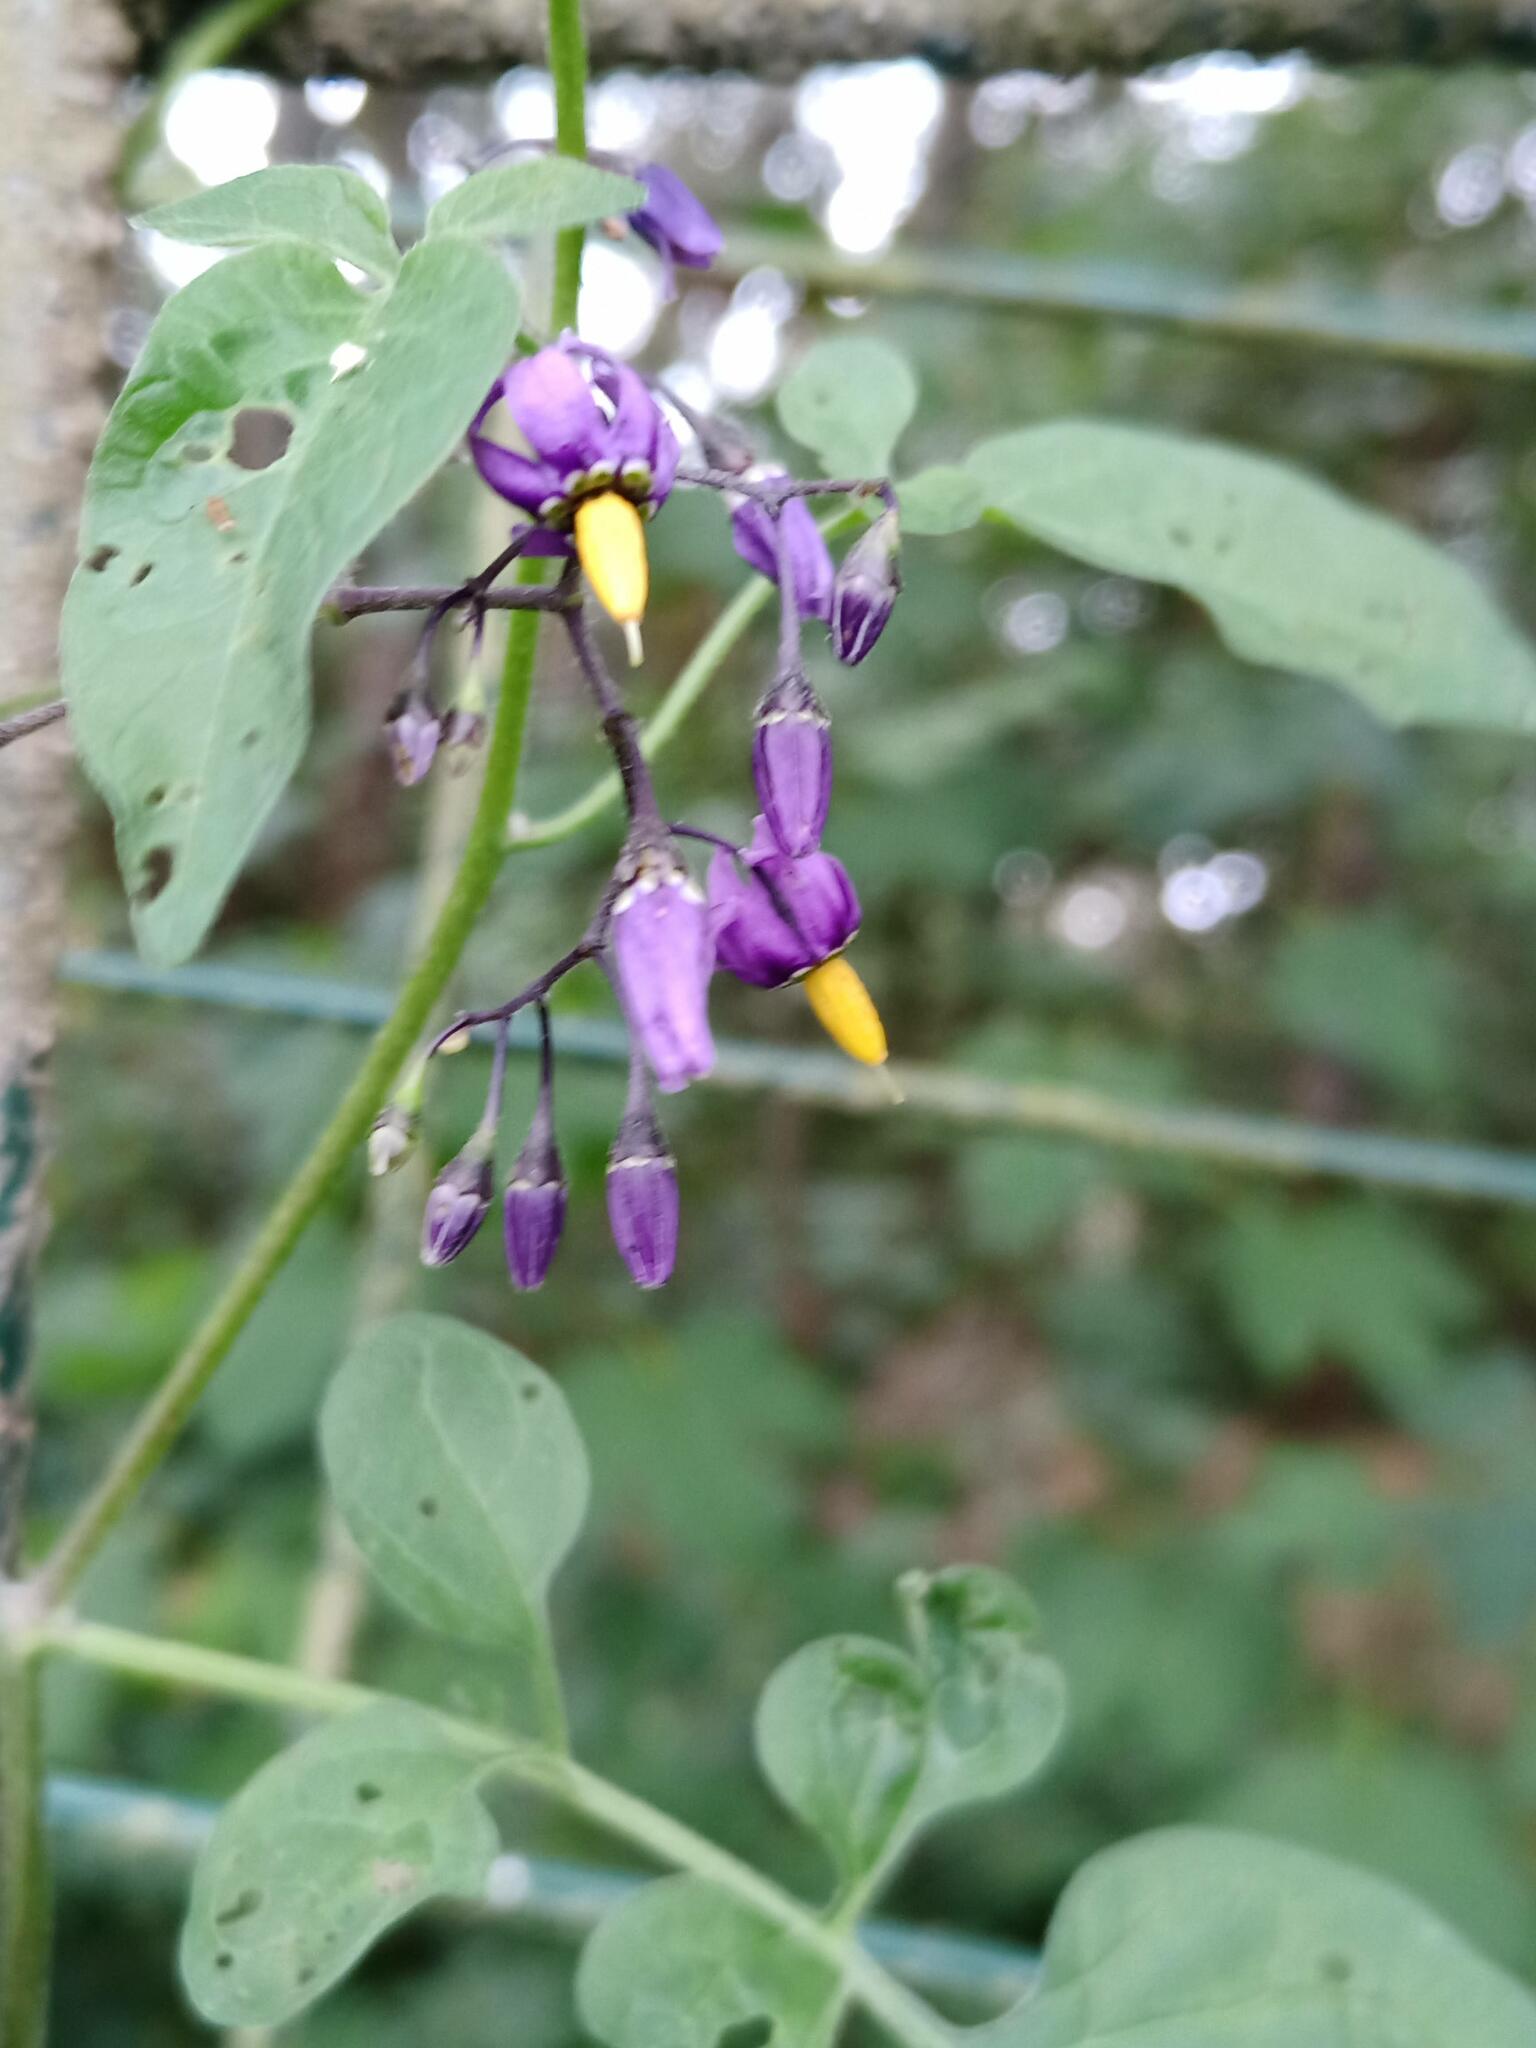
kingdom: Plantae
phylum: Tracheophyta
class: Magnoliopsida
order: Solanales
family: Solanaceae
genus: Solanum
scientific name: Solanum dulcamara
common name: Climbing nightshade
